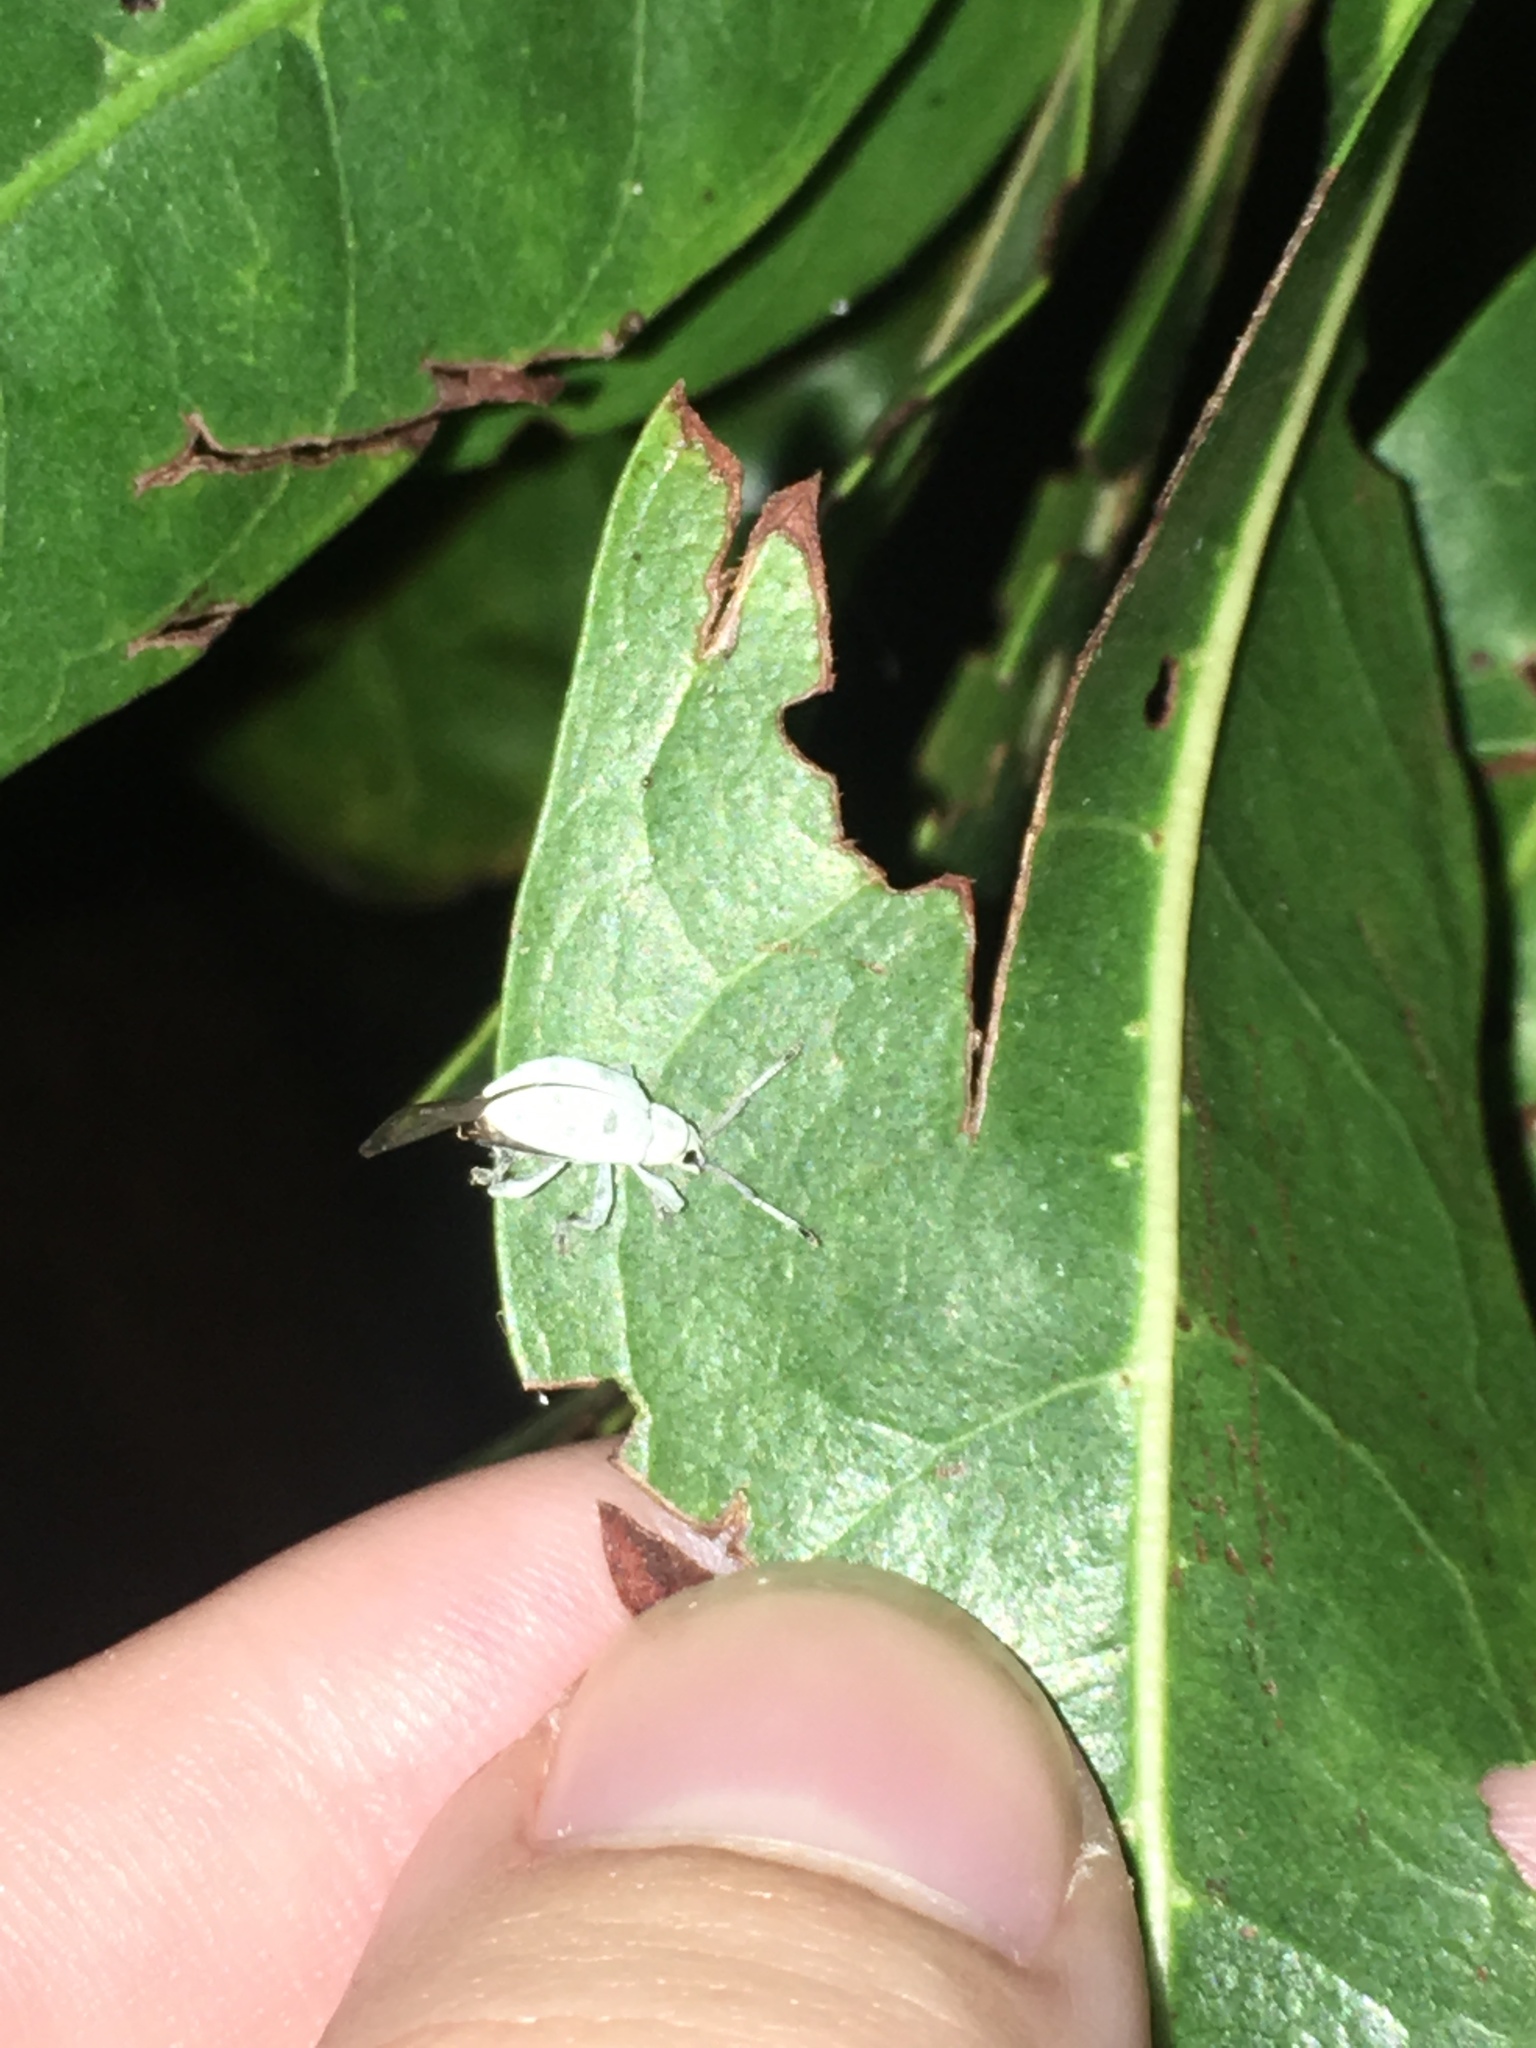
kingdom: Animalia
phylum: Arthropoda
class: Insecta
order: Coleoptera
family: Curculionidae
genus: Myllocerus
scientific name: Myllocerus undecimpustulatus
